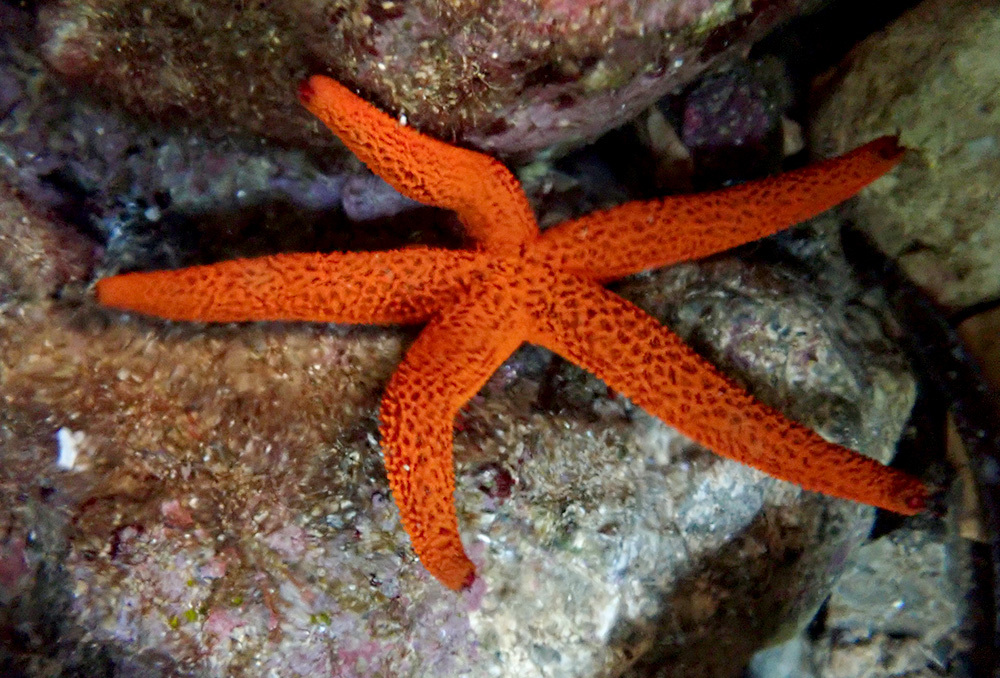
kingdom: Animalia
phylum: Echinodermata
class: Asteroidea
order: Spinulosida
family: Echinasteridae
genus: Echinaster
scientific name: Echinaster sepositus
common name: Red starfish
